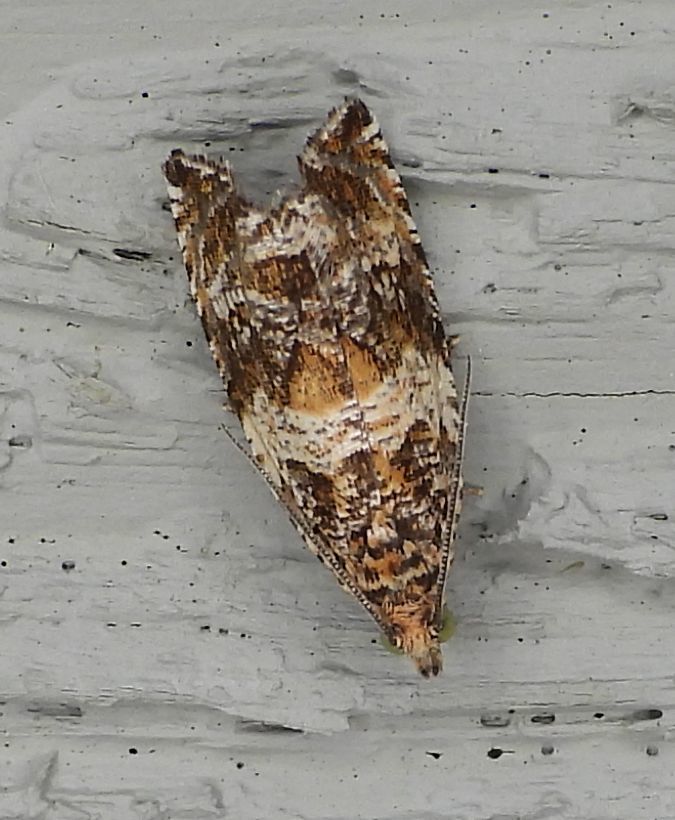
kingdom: Animalia
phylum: Arthropoda
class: Insecta
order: Lepidoptera
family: Tortricidae
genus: Celypha
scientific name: Celypha cespitana
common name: Thyme marble
